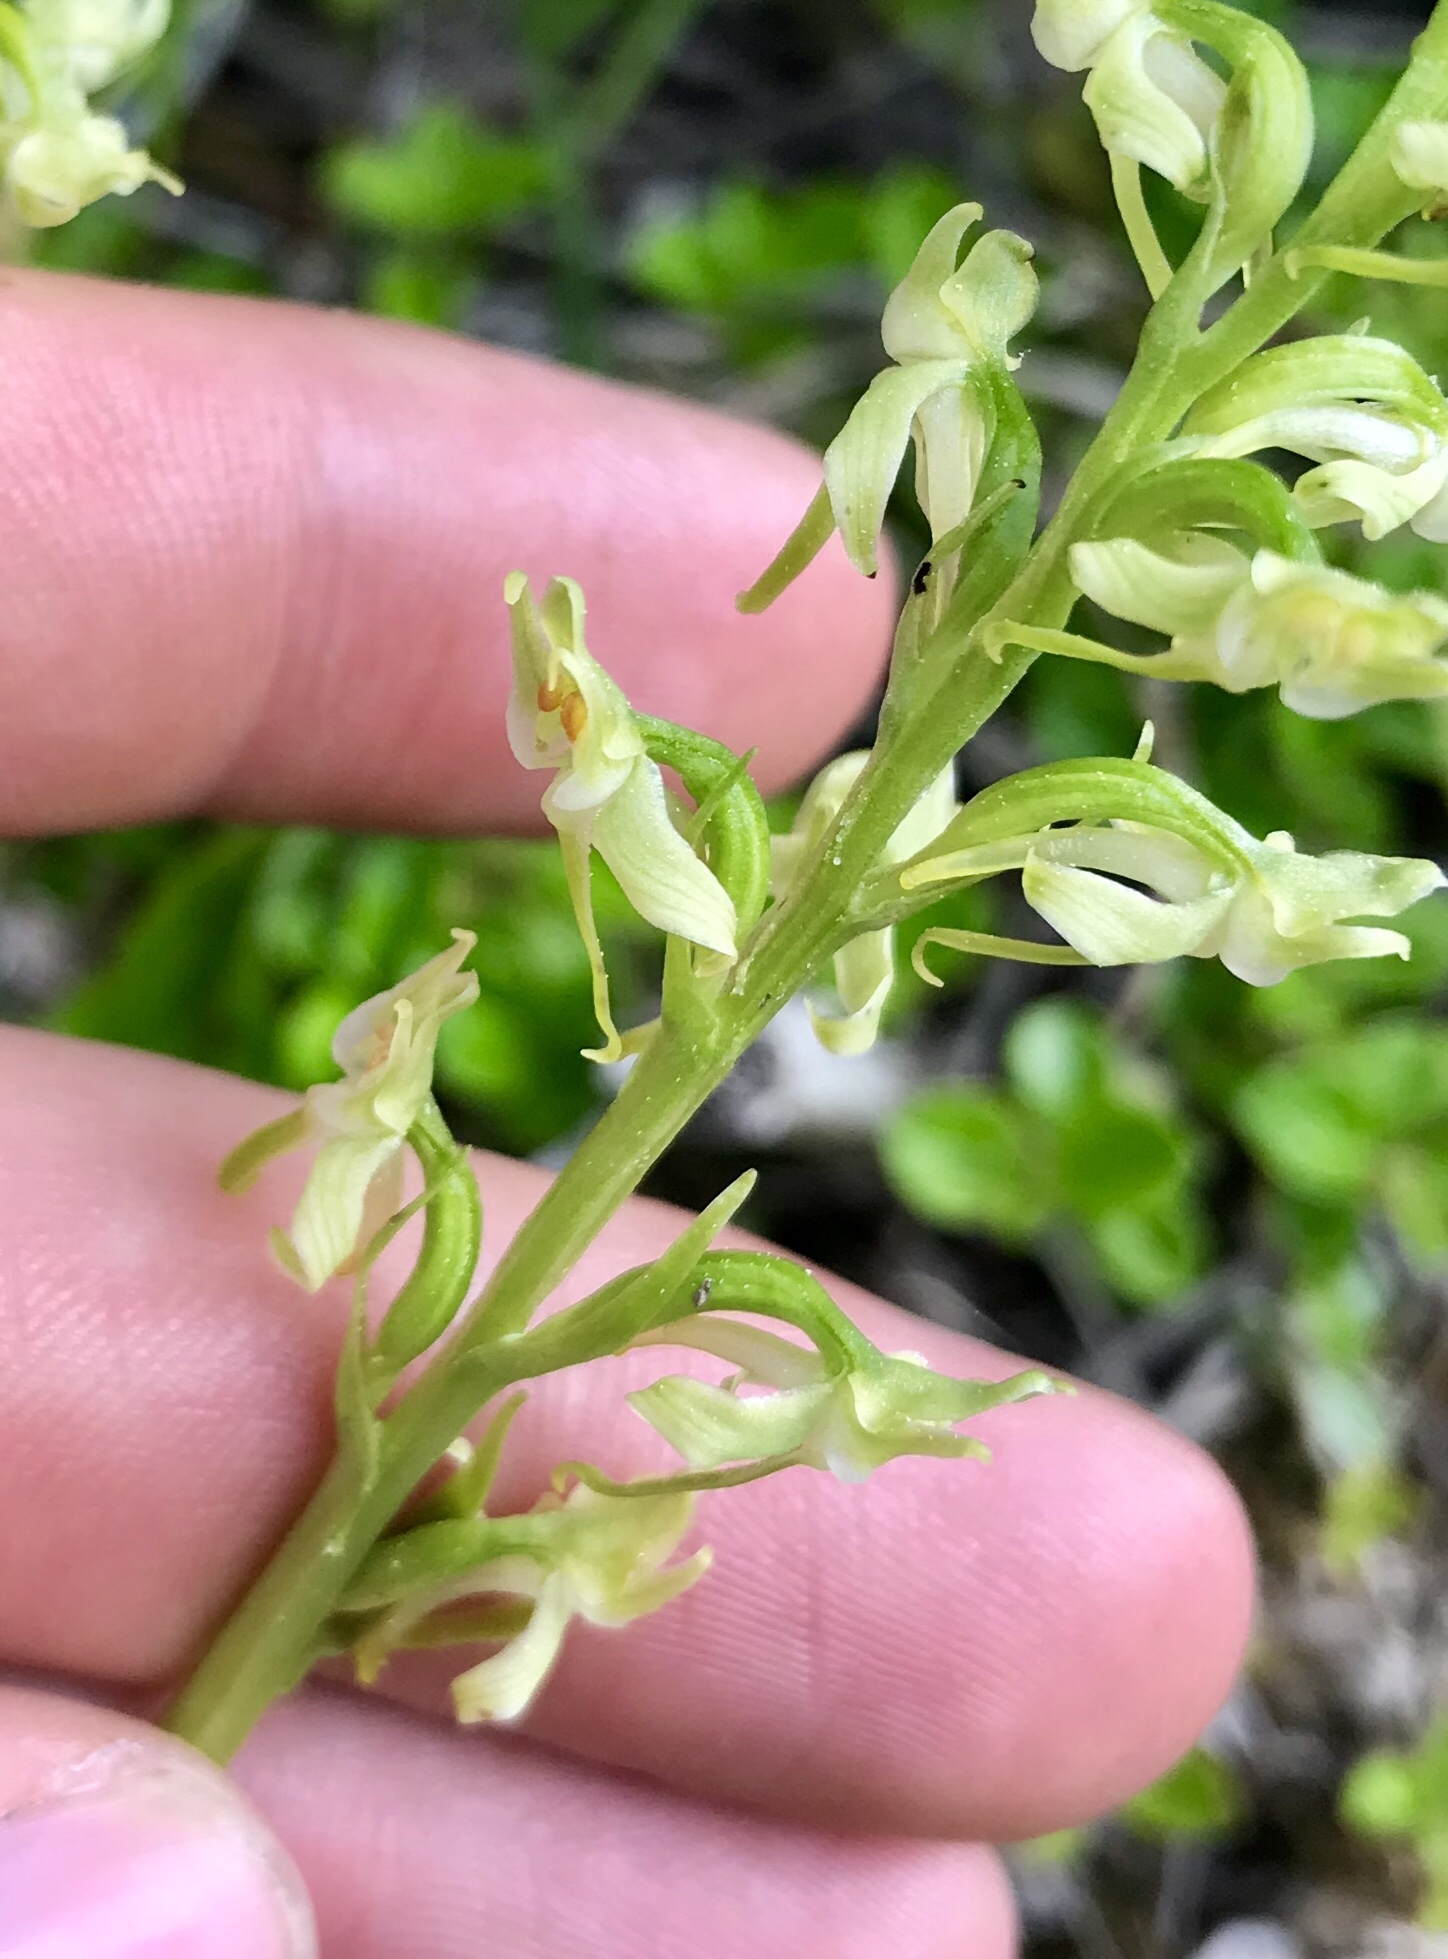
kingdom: Plantae
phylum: Tracheophyta
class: Liliopsida
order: Asparagales
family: Orchidaceae
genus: Platanthera
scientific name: Platanthera obtusata
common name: Blunt bog orchid
